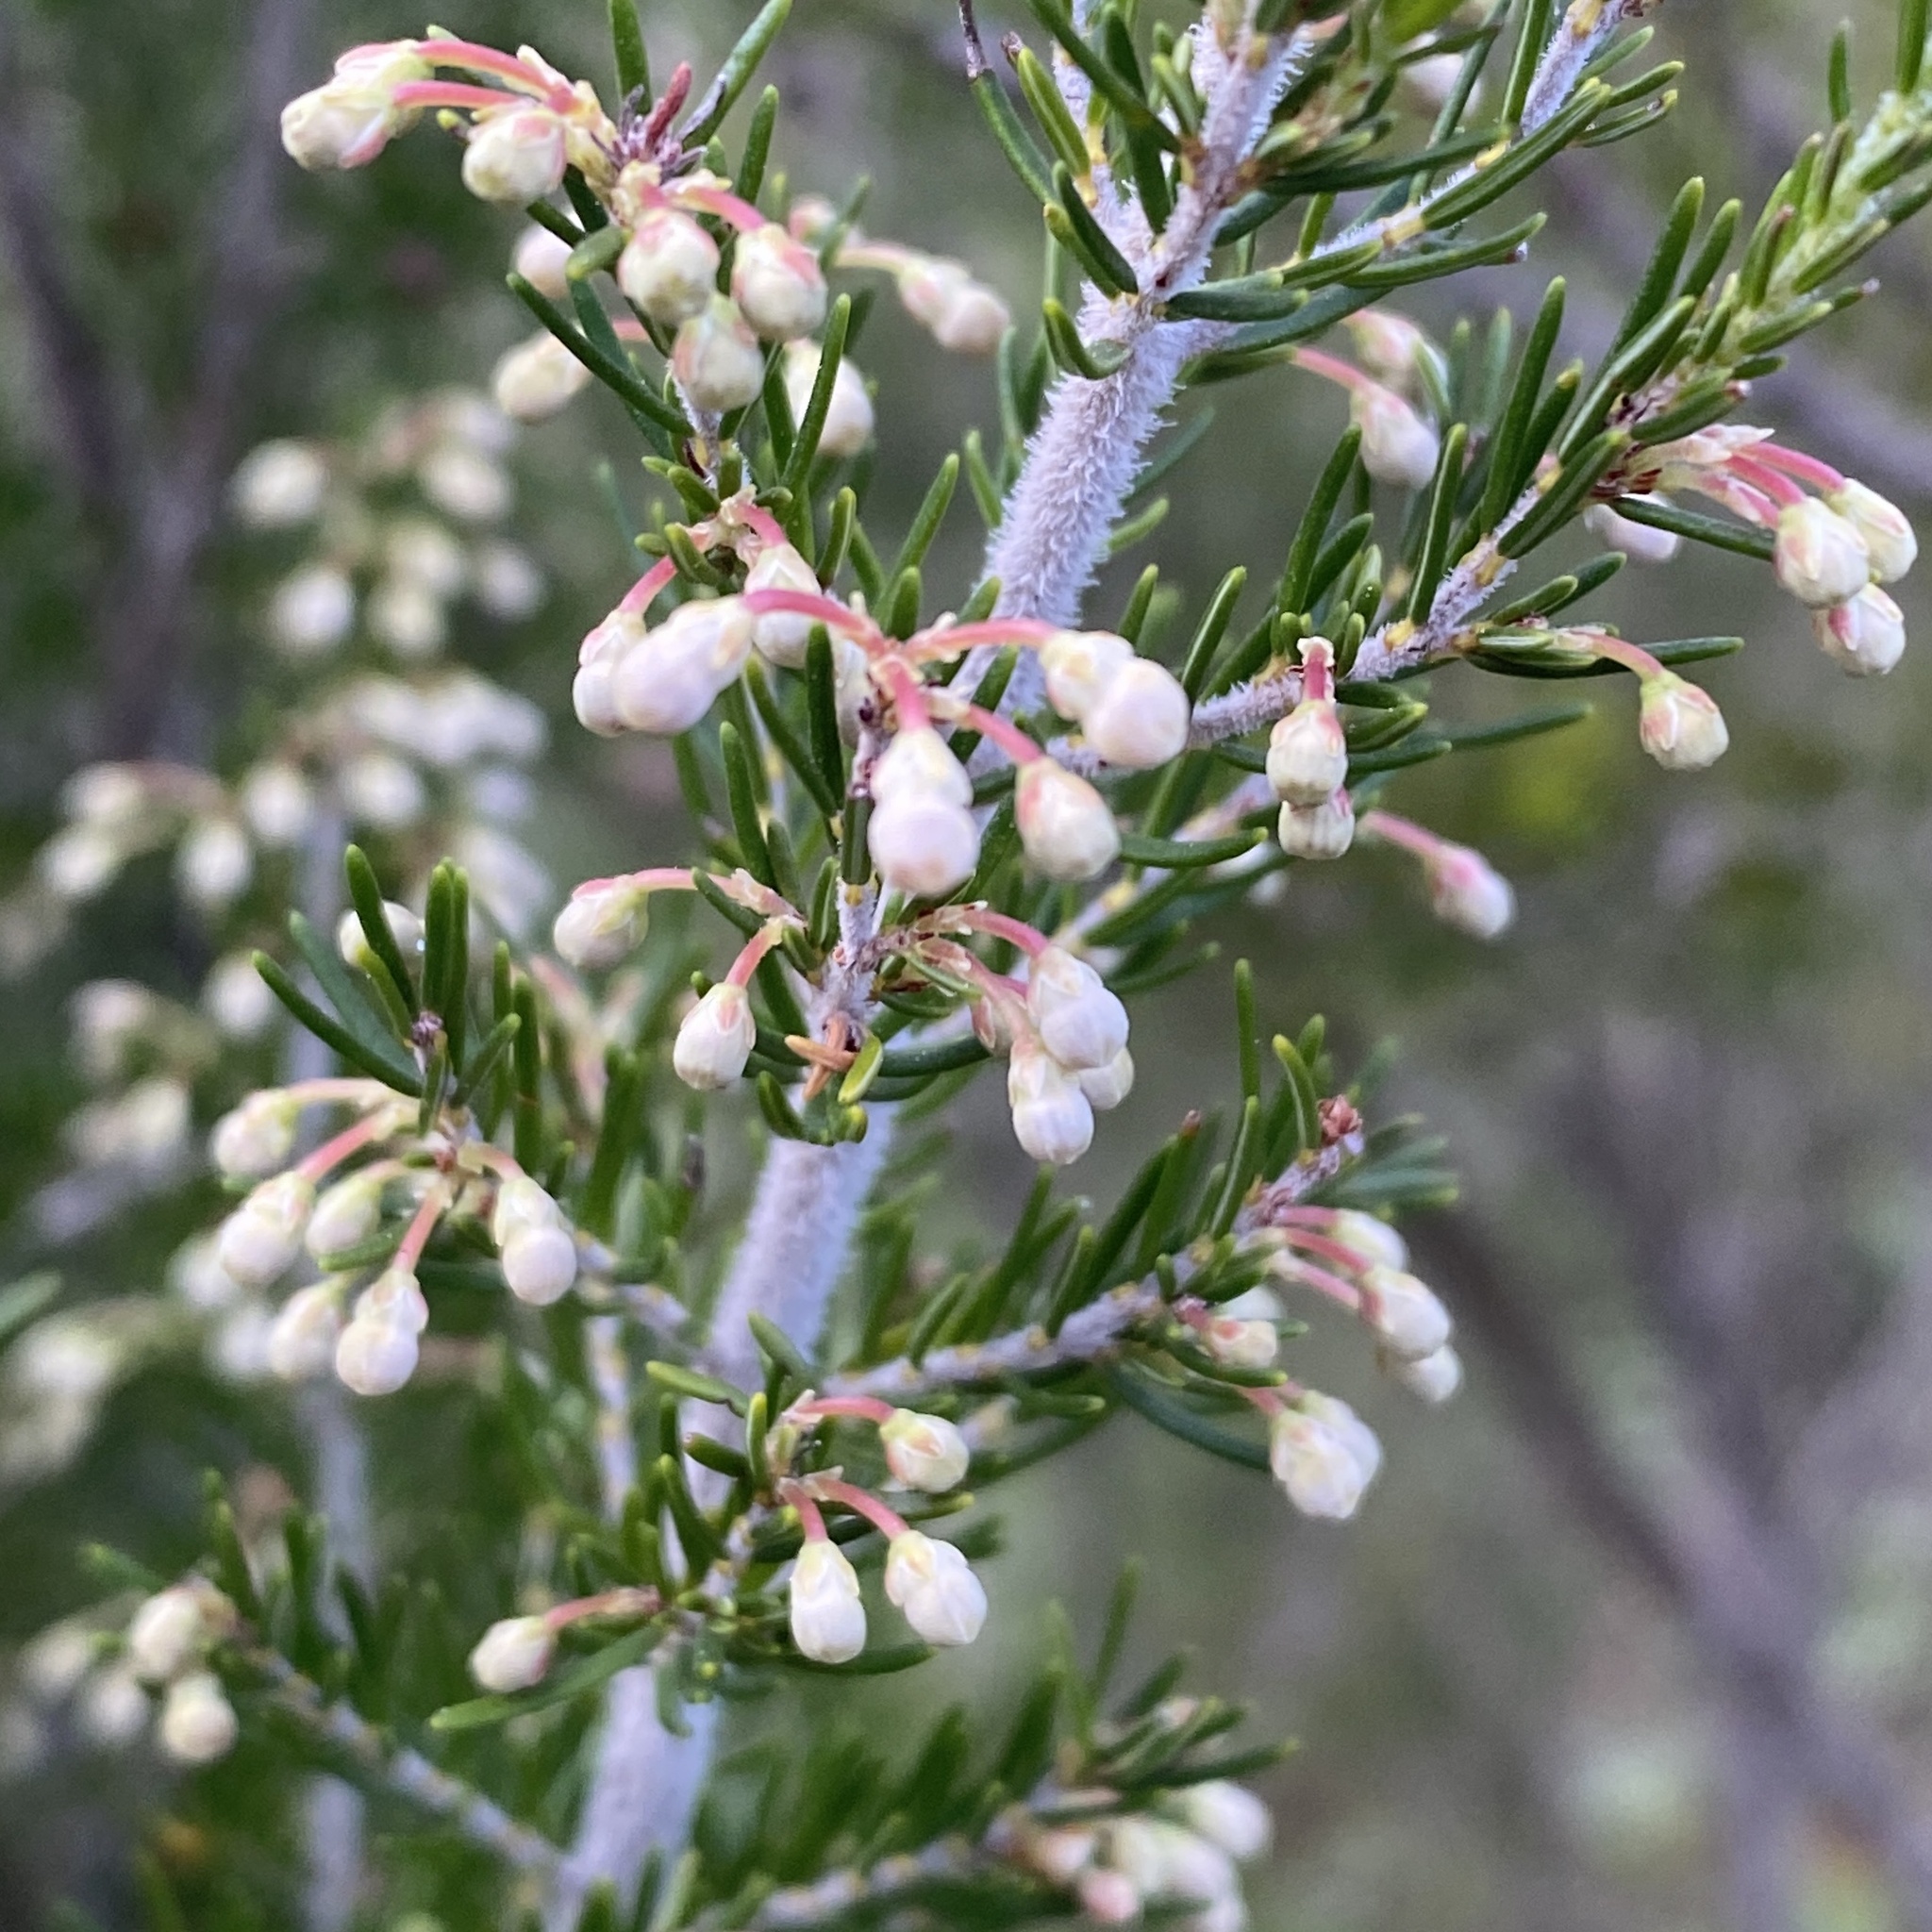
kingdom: Plantae
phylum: Tracheophyta
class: Magnoliopsida
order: Ericales
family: Ericaceae
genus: Erica
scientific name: Erica arborea
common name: Tree heath
